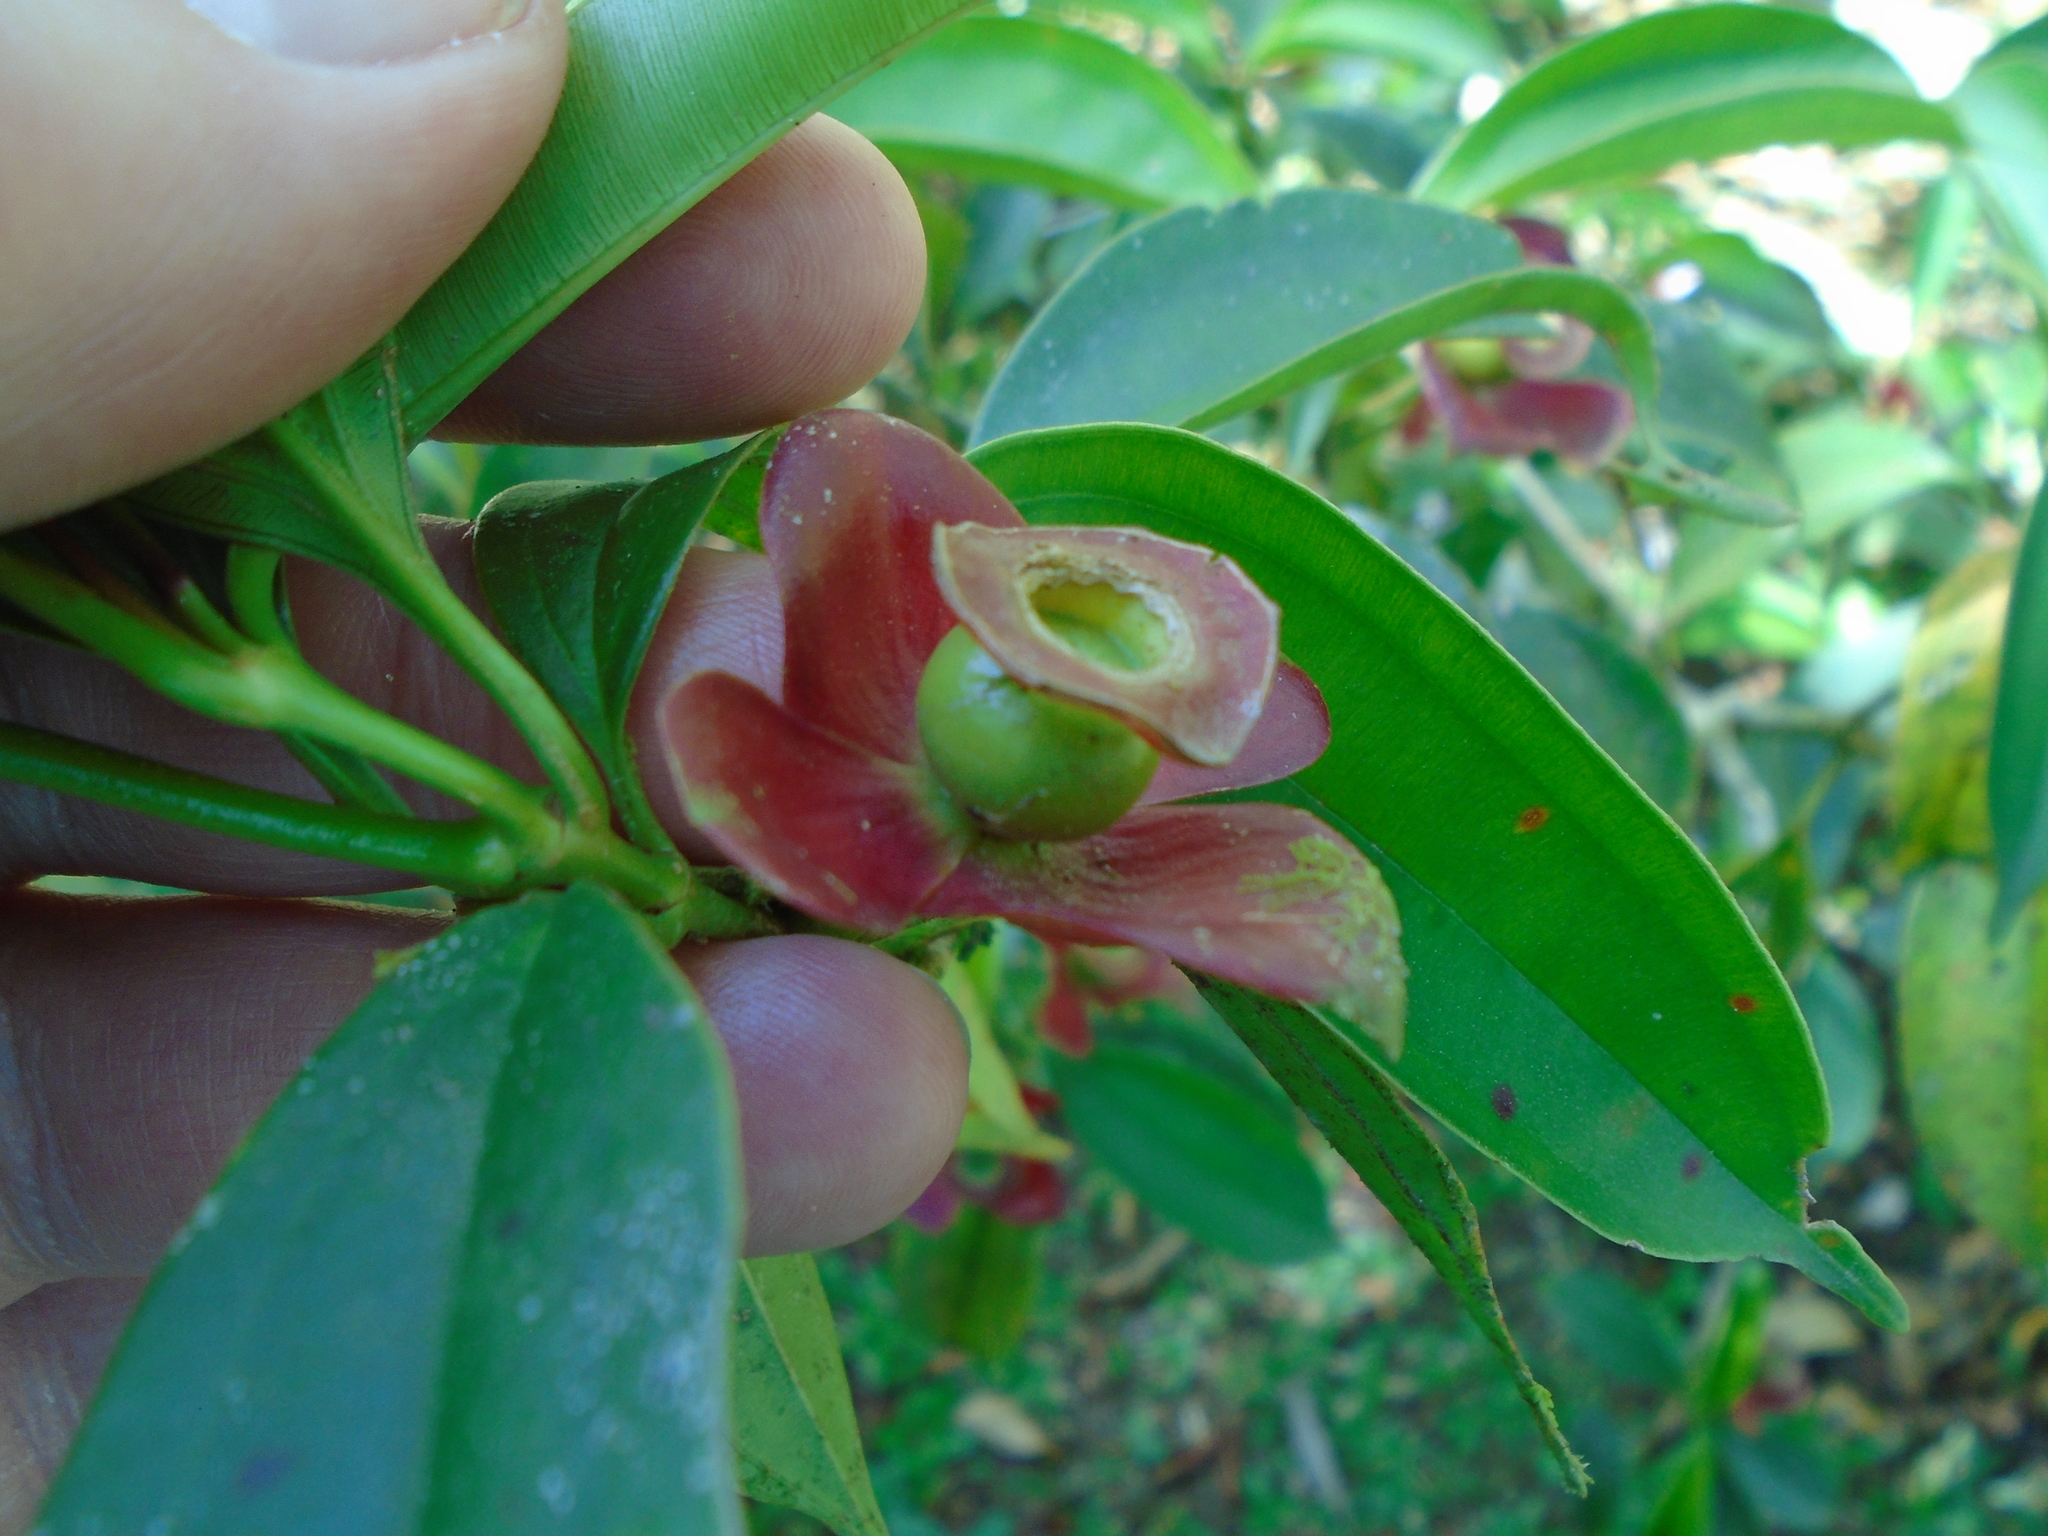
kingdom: Plantae
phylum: Tracheophyta
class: Magnoliopsida
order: Myrtales
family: Melastomataceae
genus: Blakea
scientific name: Blakea litoralis
